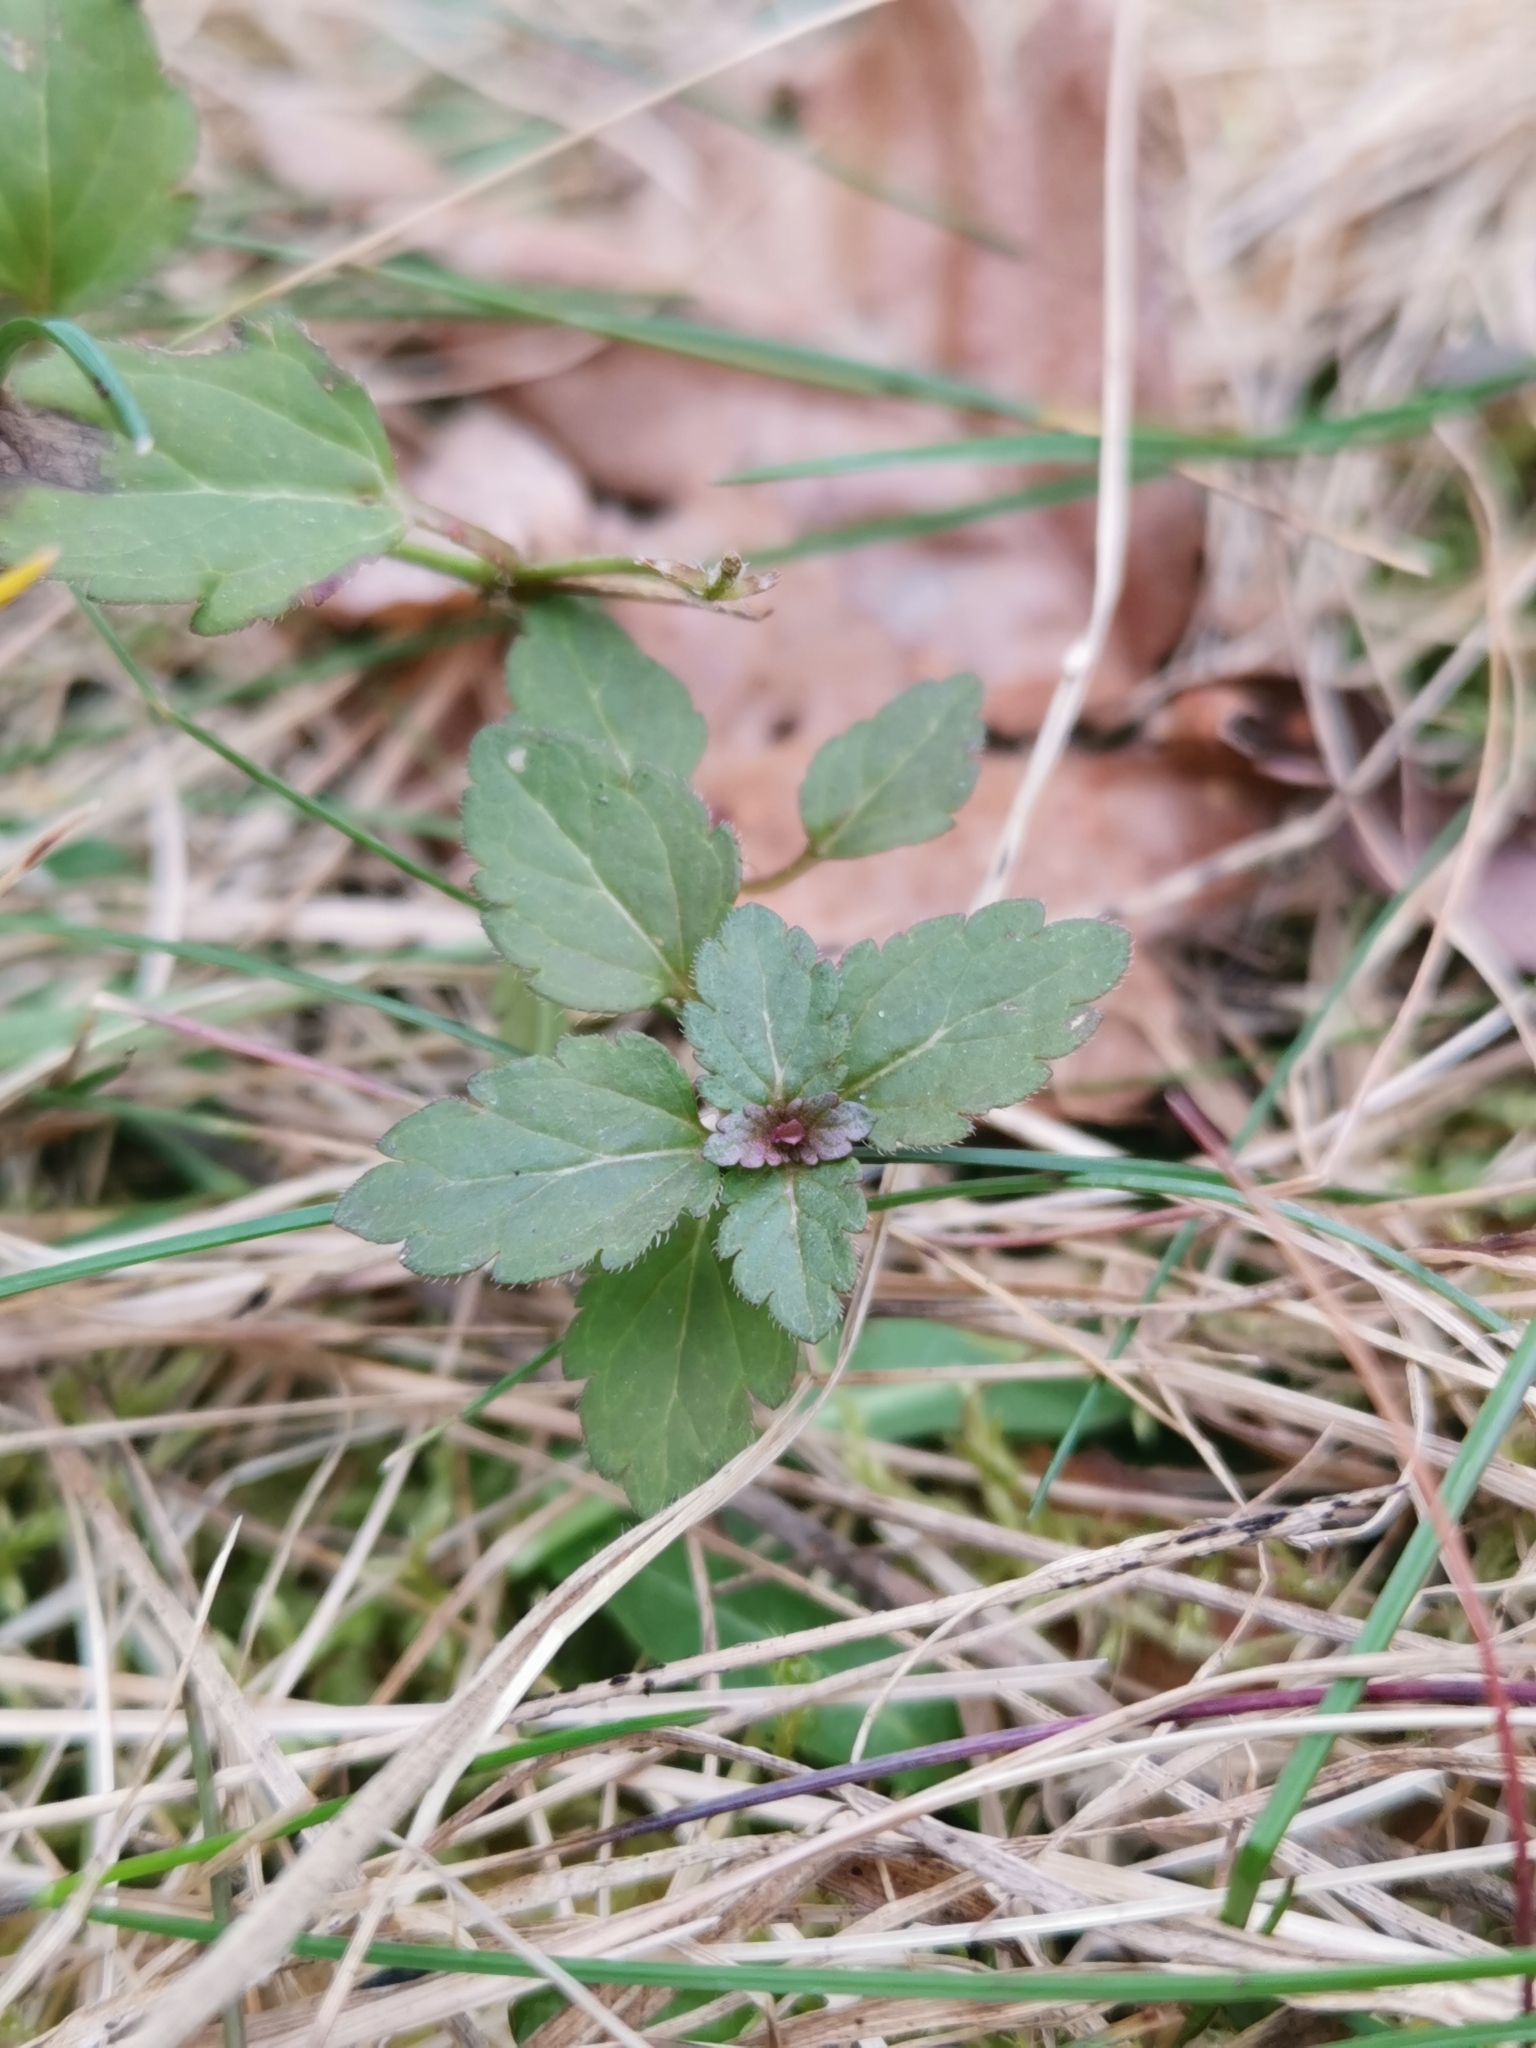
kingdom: Plantae
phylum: Tracheophyta
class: Magnoliopsida
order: Lamiales
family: Plantaginaceae
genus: Veronica
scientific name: Veronica chamaedrys
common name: Germander speedwell
